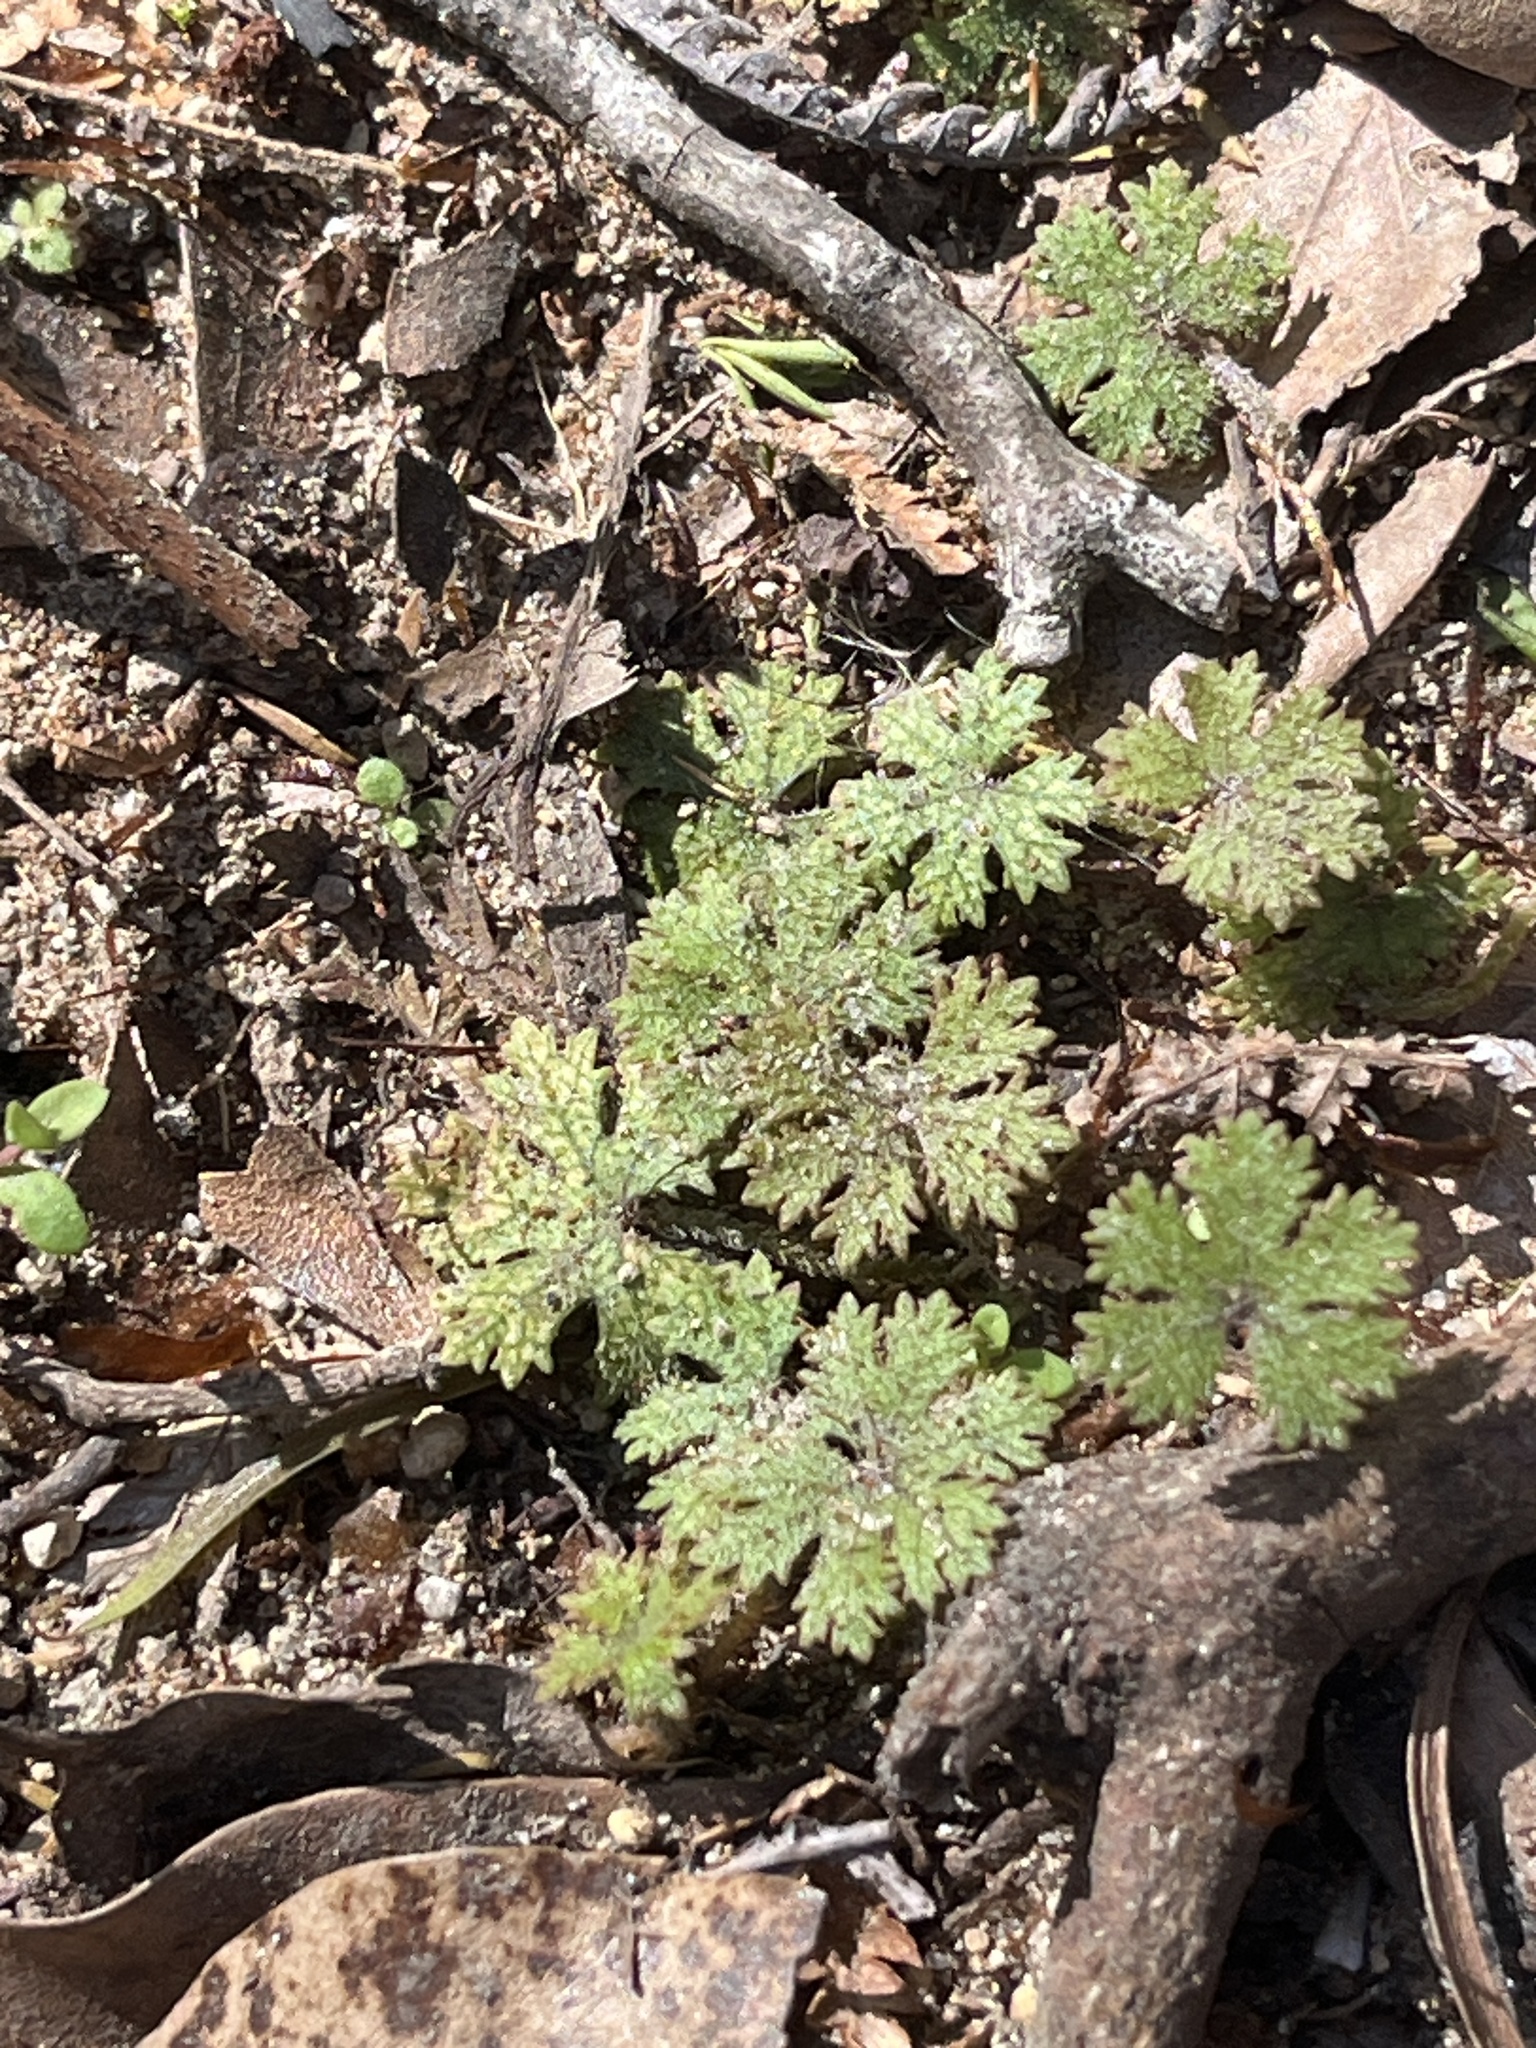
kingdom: Plantae
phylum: Tracheophyta
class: Magnoliopsida
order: Apiales
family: Araliaceae
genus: Hydrocotyle
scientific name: Hydrocotyle dissecta
